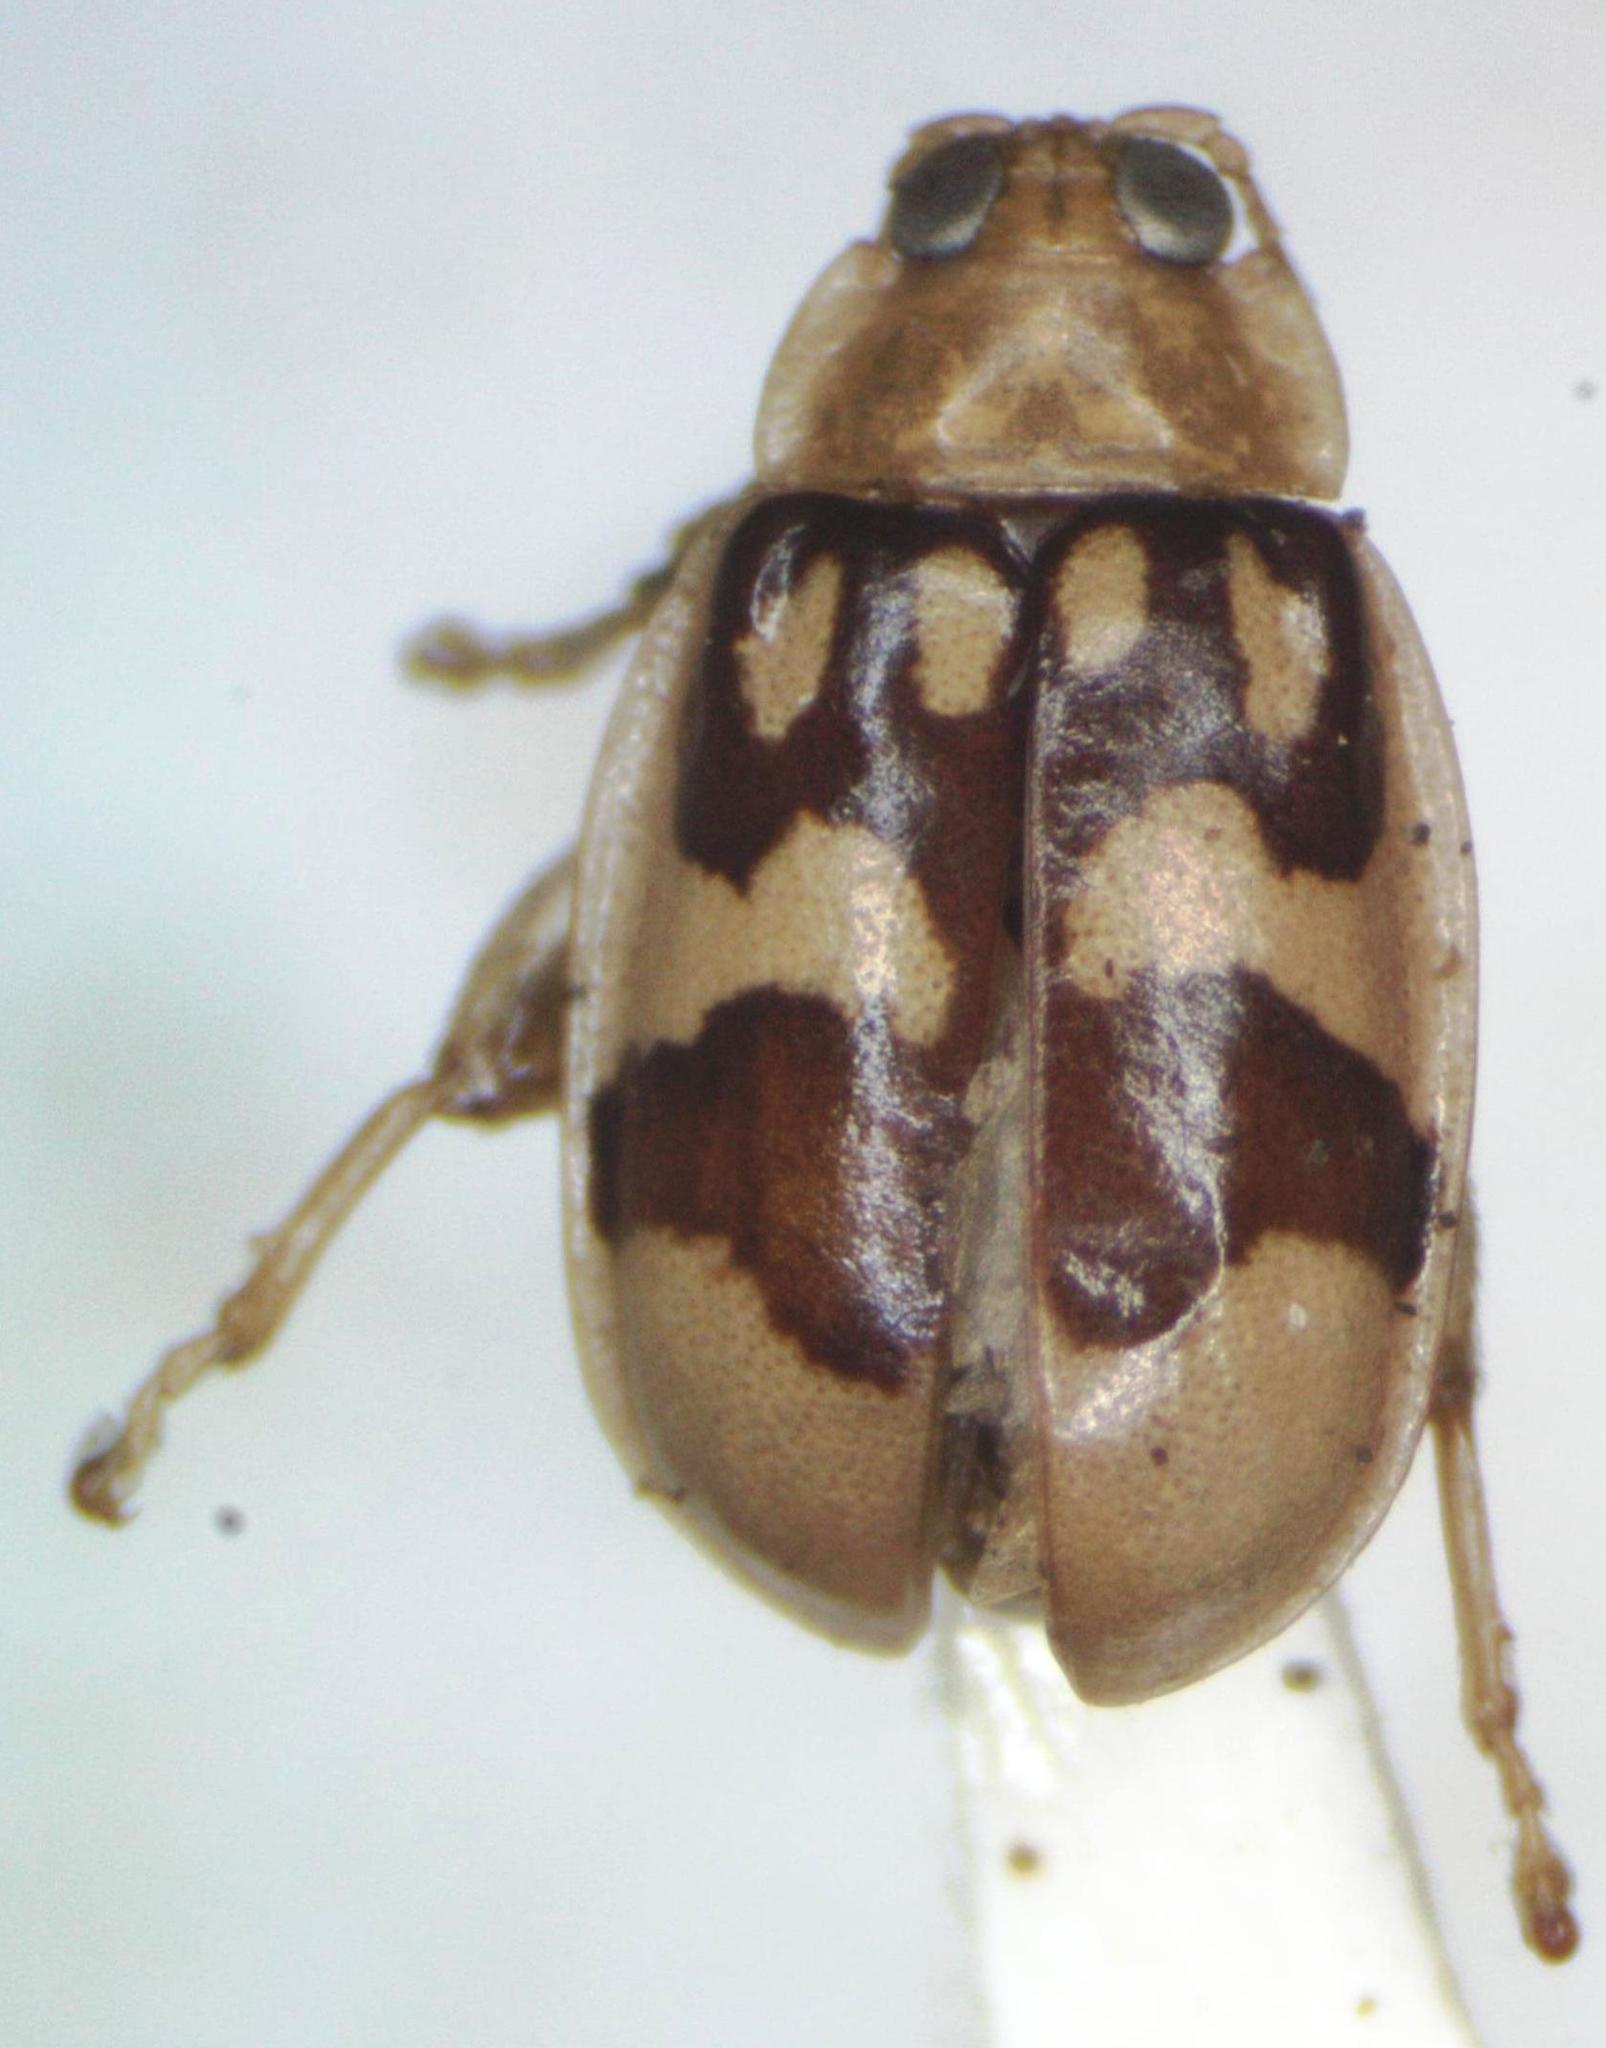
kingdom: Animalia
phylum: Arthropoda
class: Insecta
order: Coleoptera
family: Chrysomelidae
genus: Walterianella
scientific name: Walterianella
